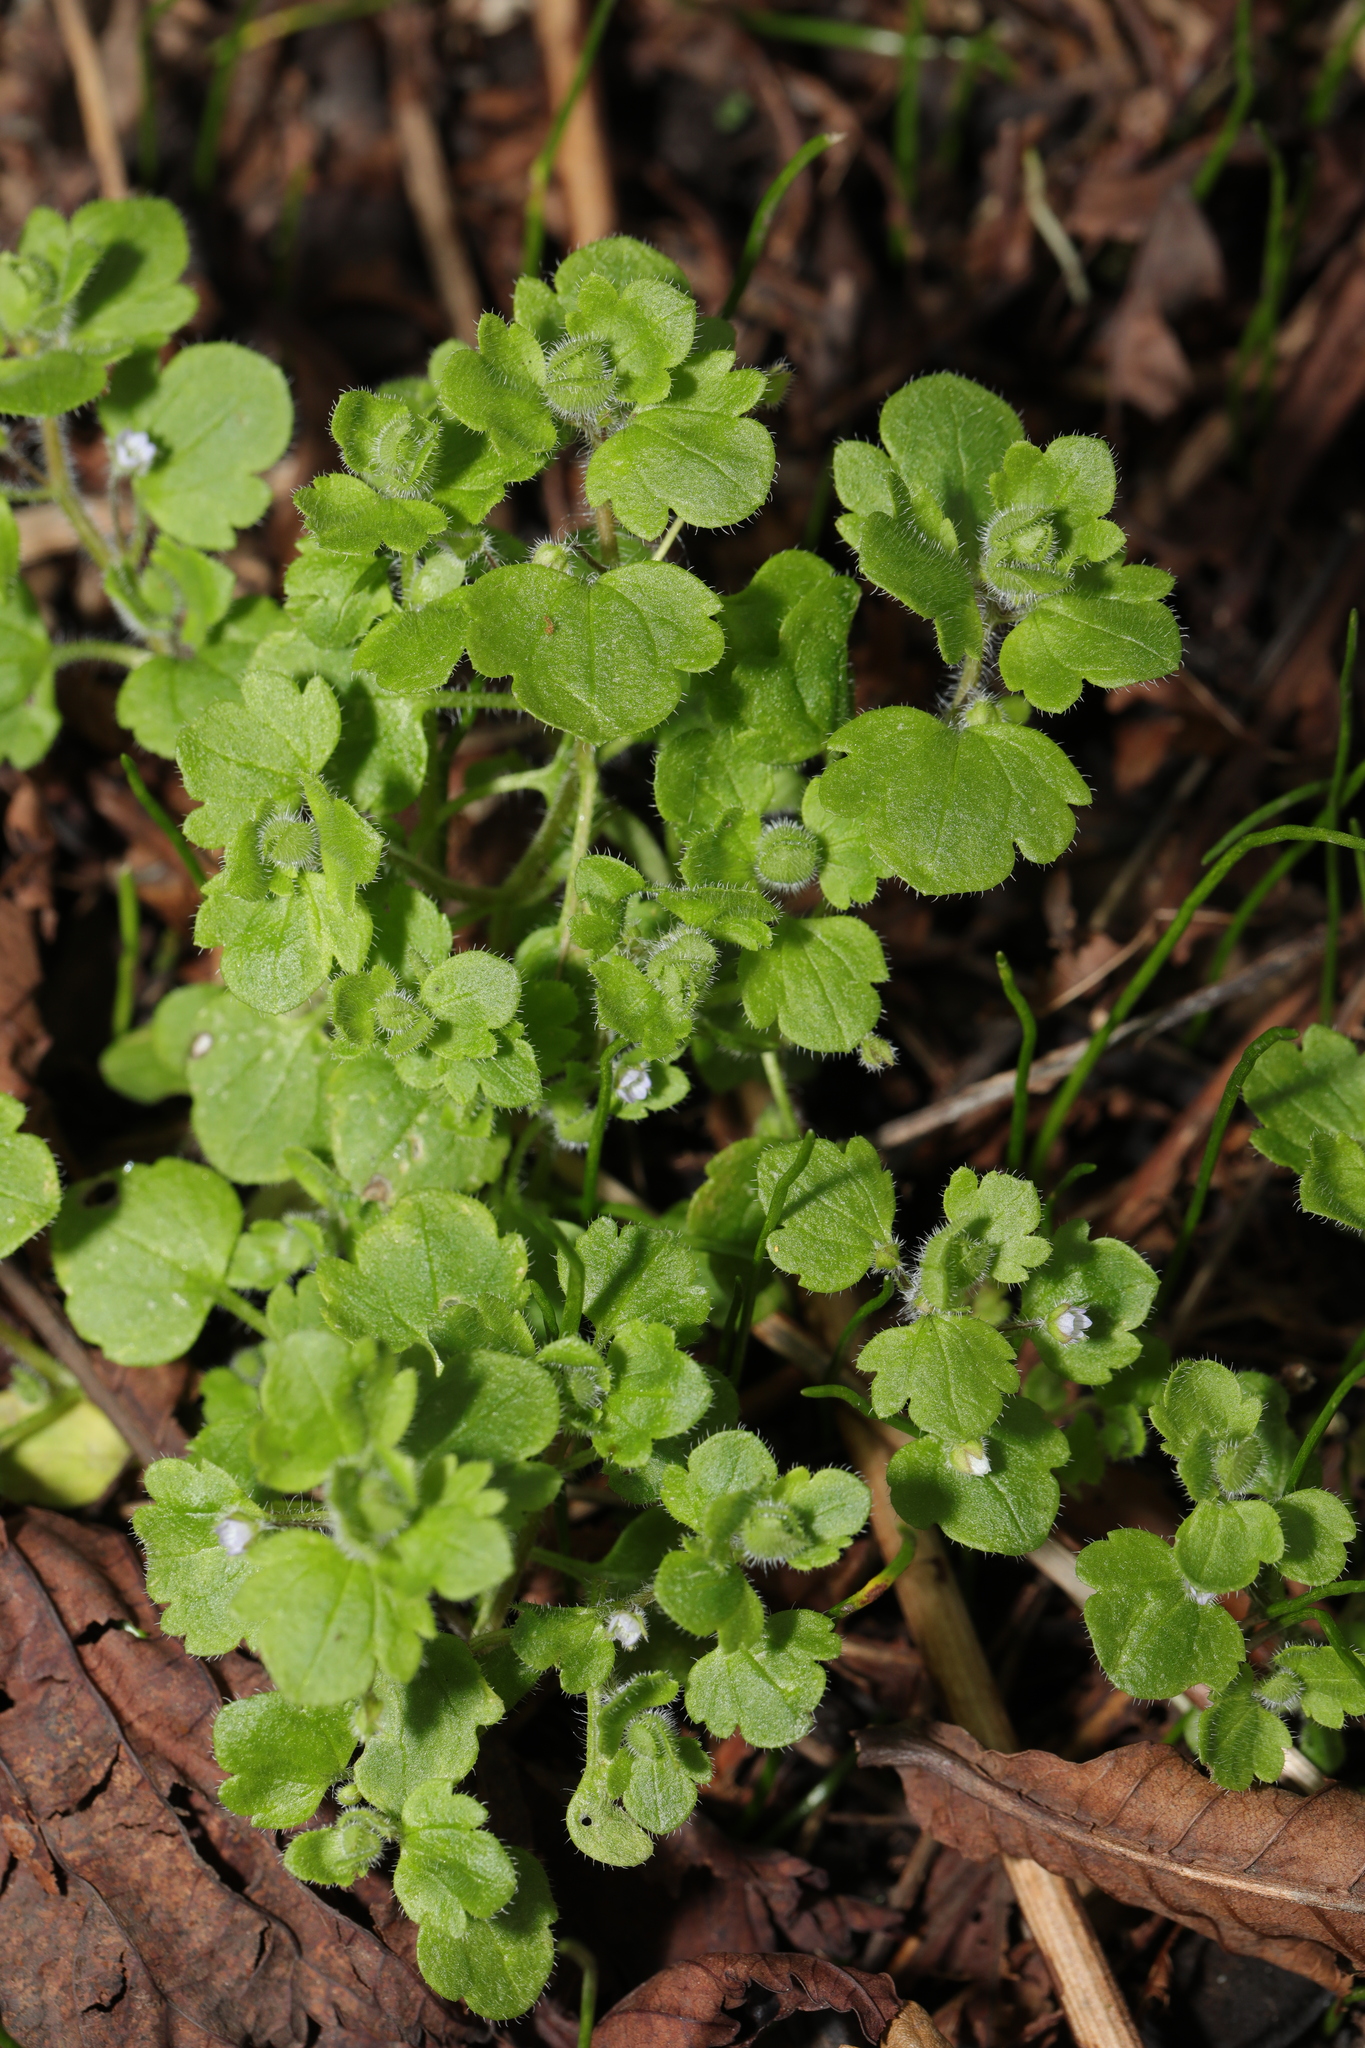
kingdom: Plantae
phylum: Tracheophyta
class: Magnoliopsida
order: Lamiales
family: Plantaginaceae
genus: Veronica
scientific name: Veronica sublobata
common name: False ivy-leaved speedwell
